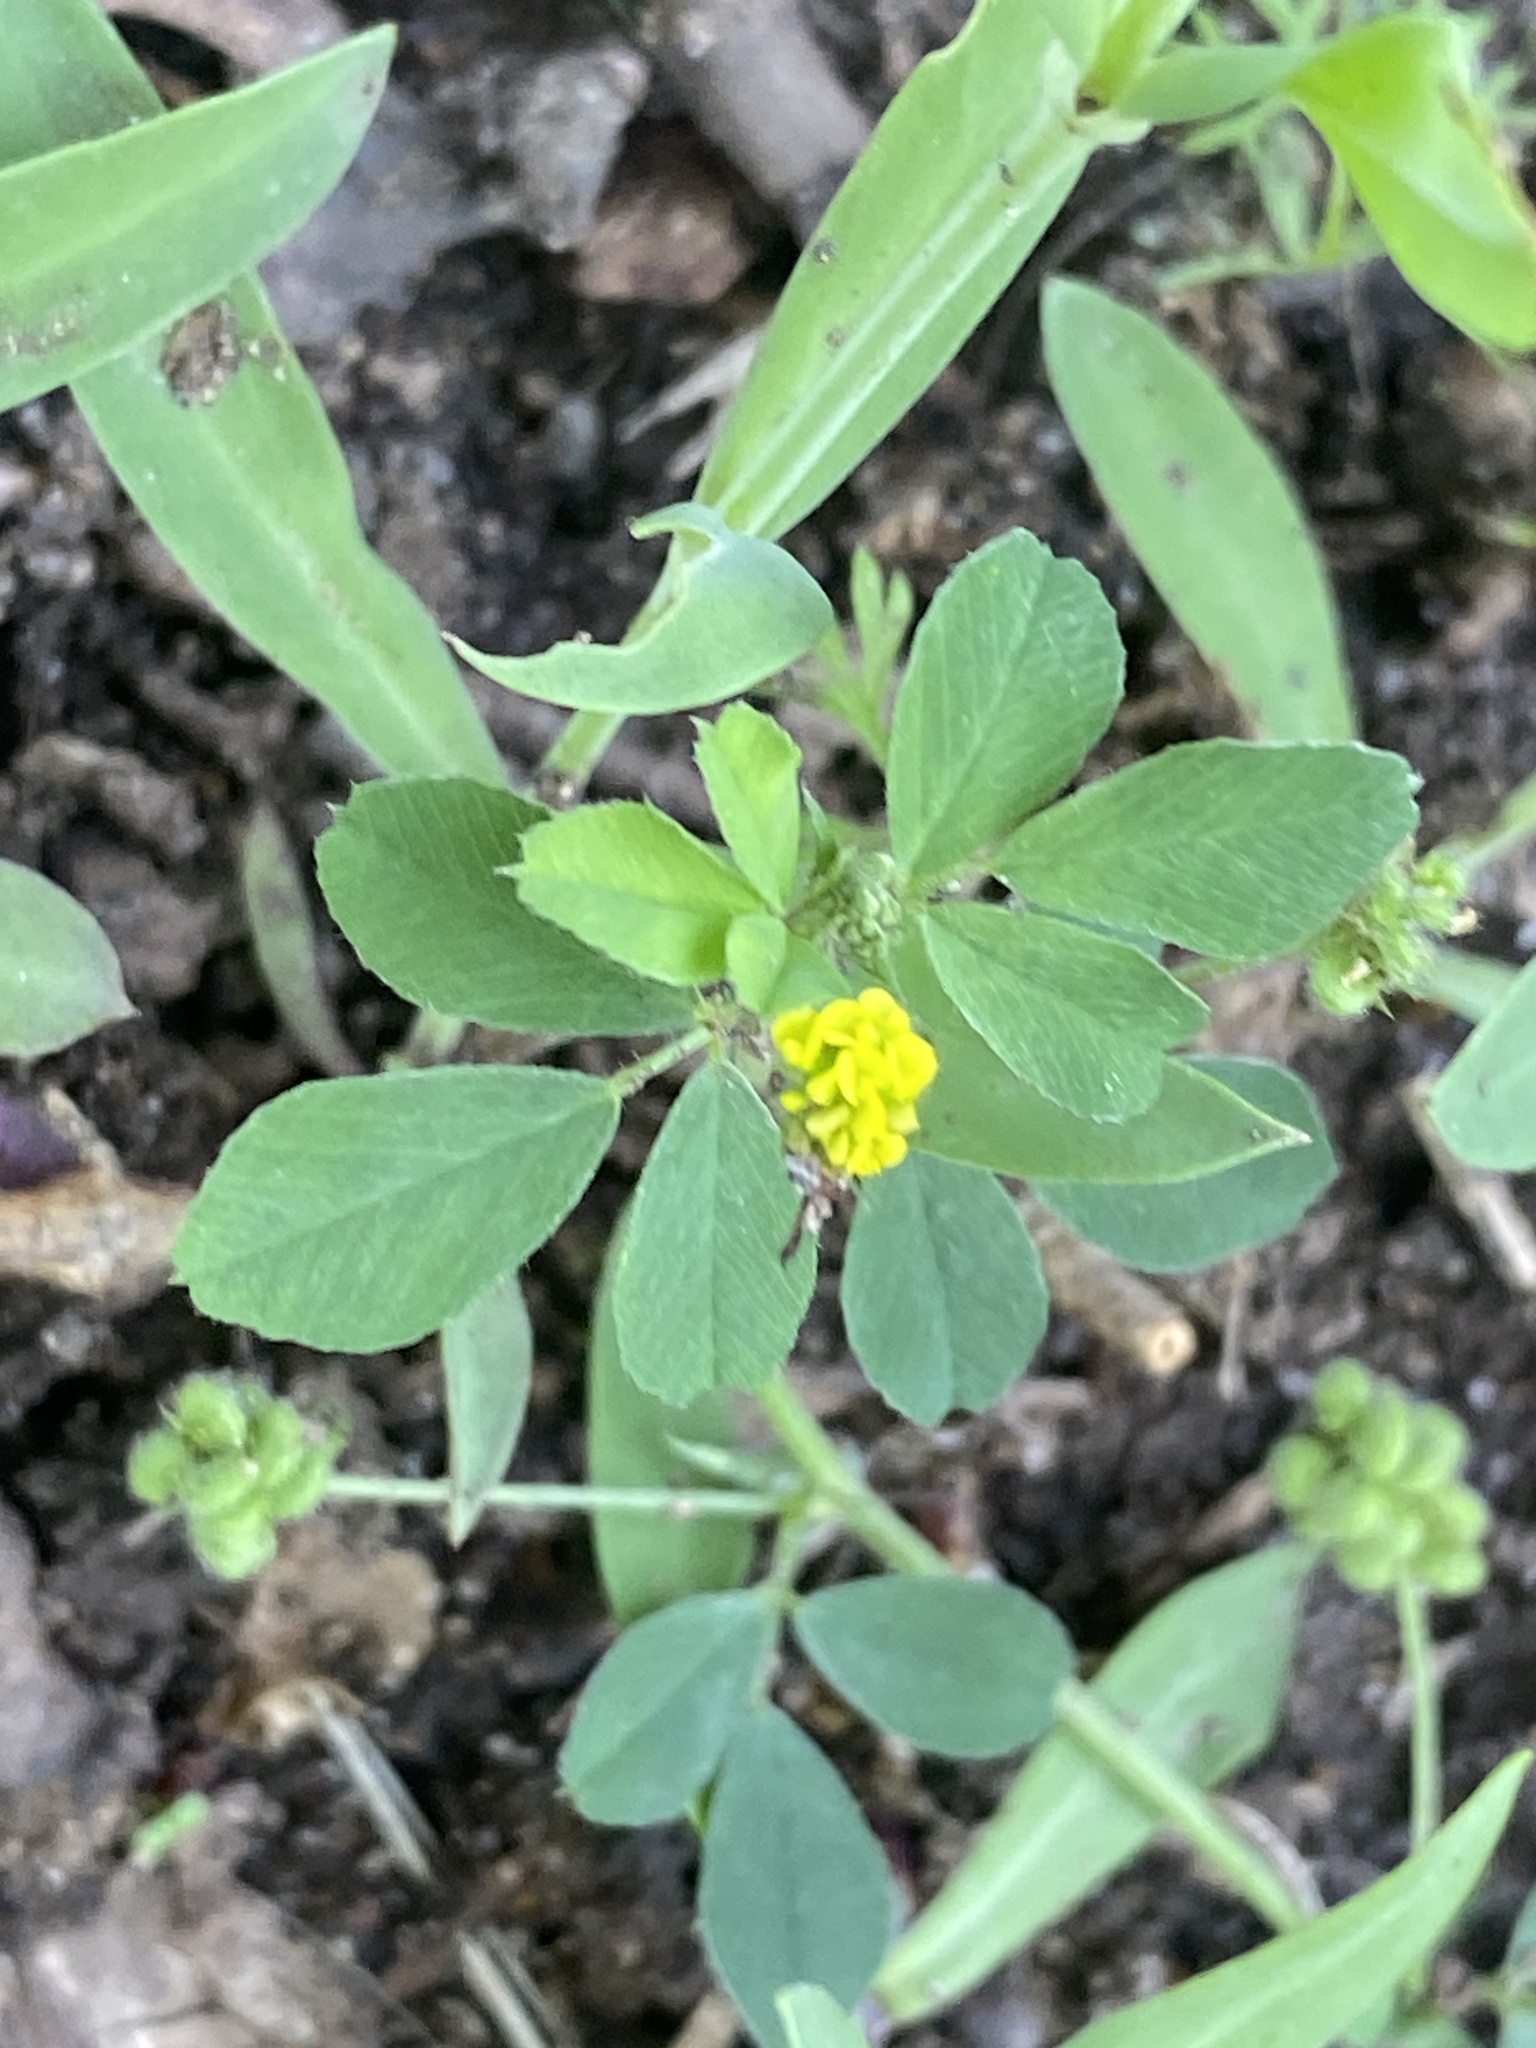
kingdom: Plantae
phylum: Tracheophyta
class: Magnoliopsida
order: Fabales
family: Fabaceae
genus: Medicago
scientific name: Medicago lupulina
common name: Black medick
